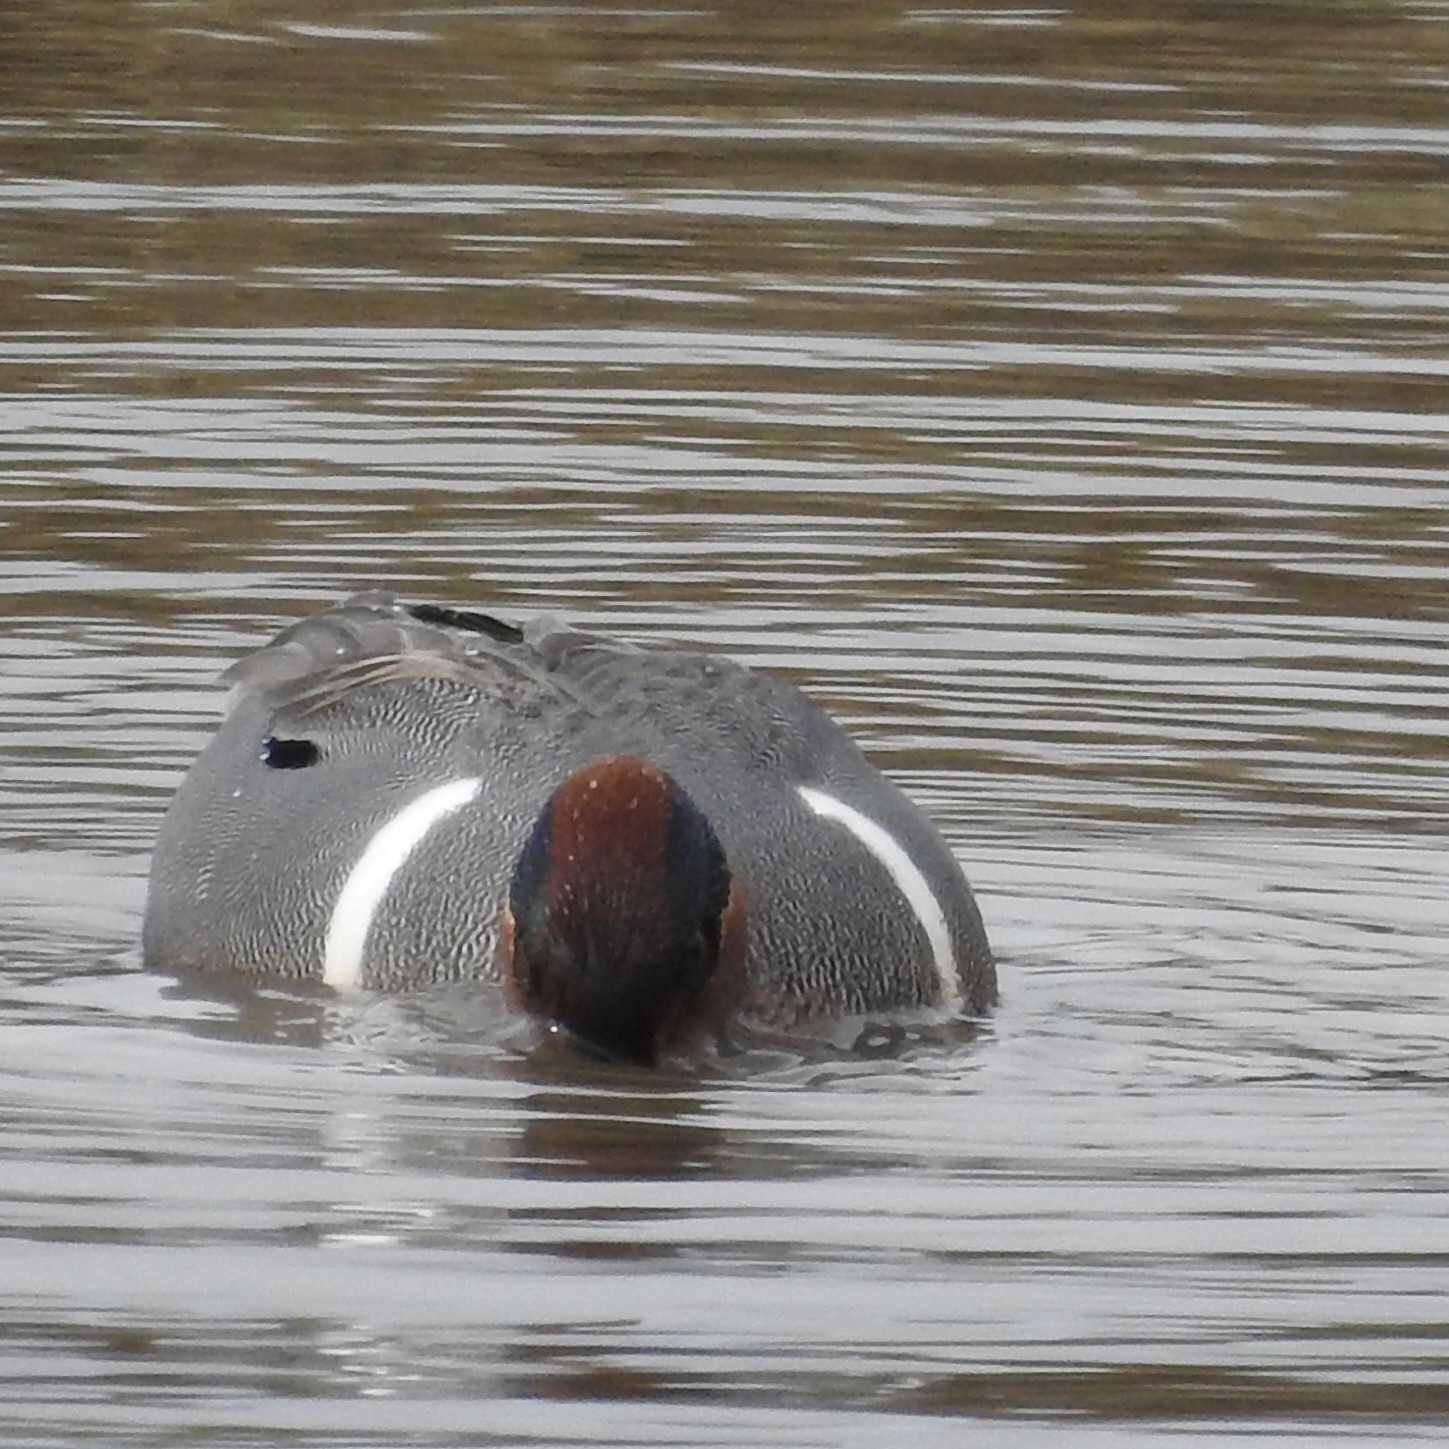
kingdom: Animalia
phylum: Chordata
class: Aves
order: Anseriformes
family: Anatidae
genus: Anas
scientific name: Anas crecca
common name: Eurasian teal
